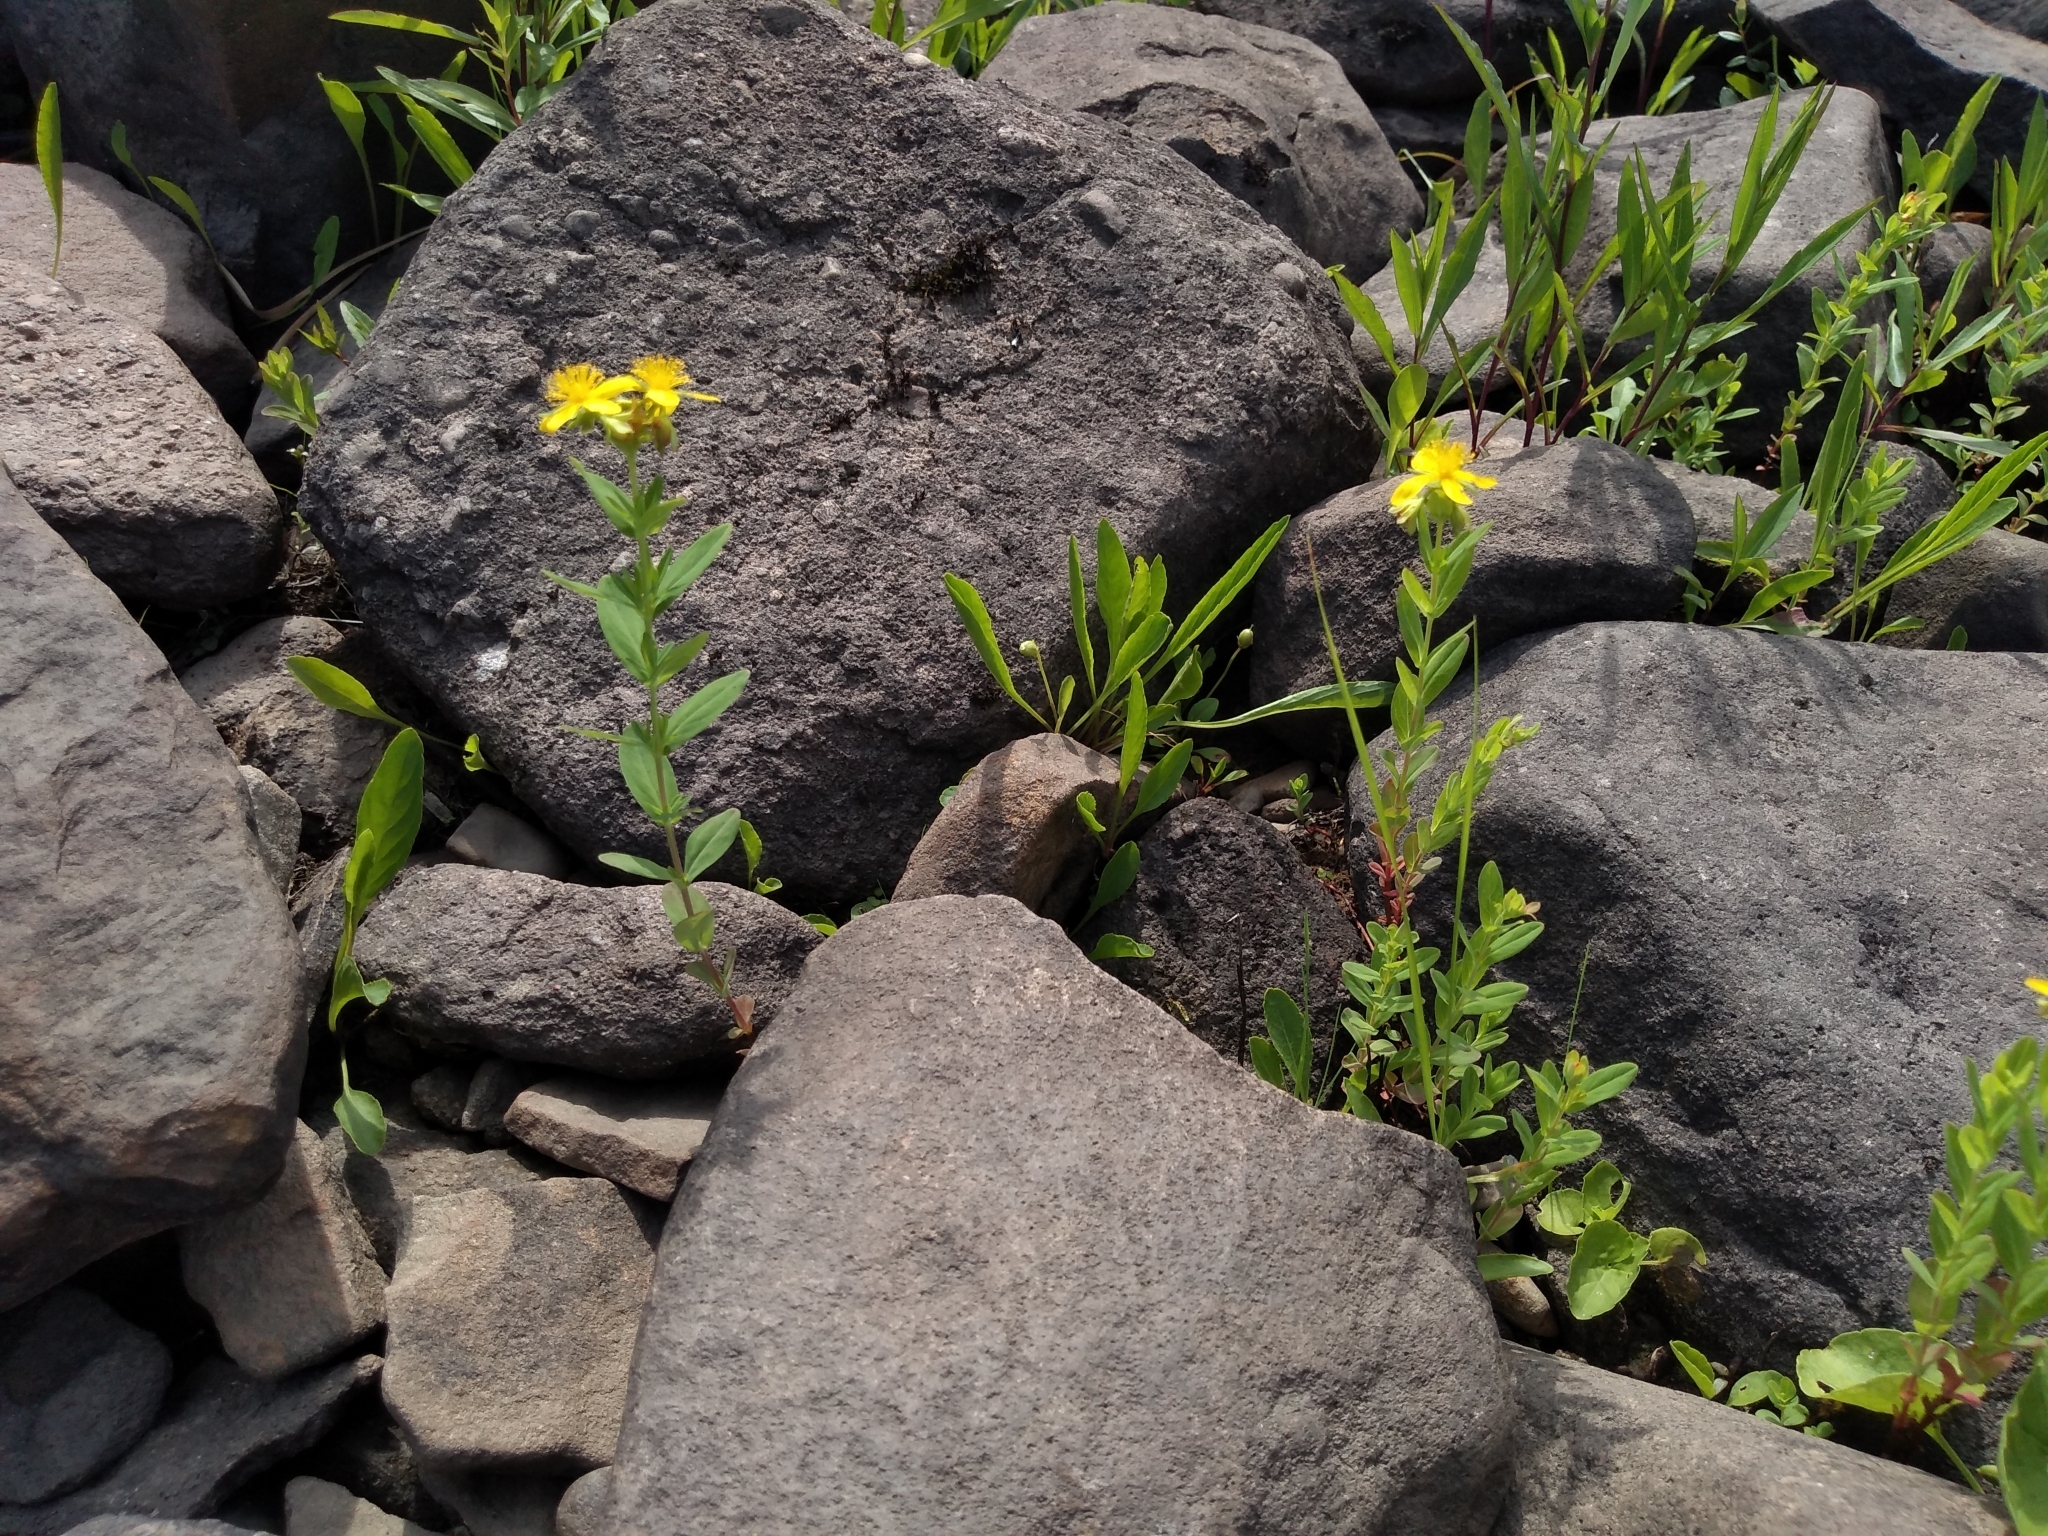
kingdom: Plantae
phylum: Tracheophyta
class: Magnoliopsida
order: Malpighiales
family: Hypericaceae
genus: Hypericum
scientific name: Hypericum ellipticum
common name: Elliptic st. john's-wort
